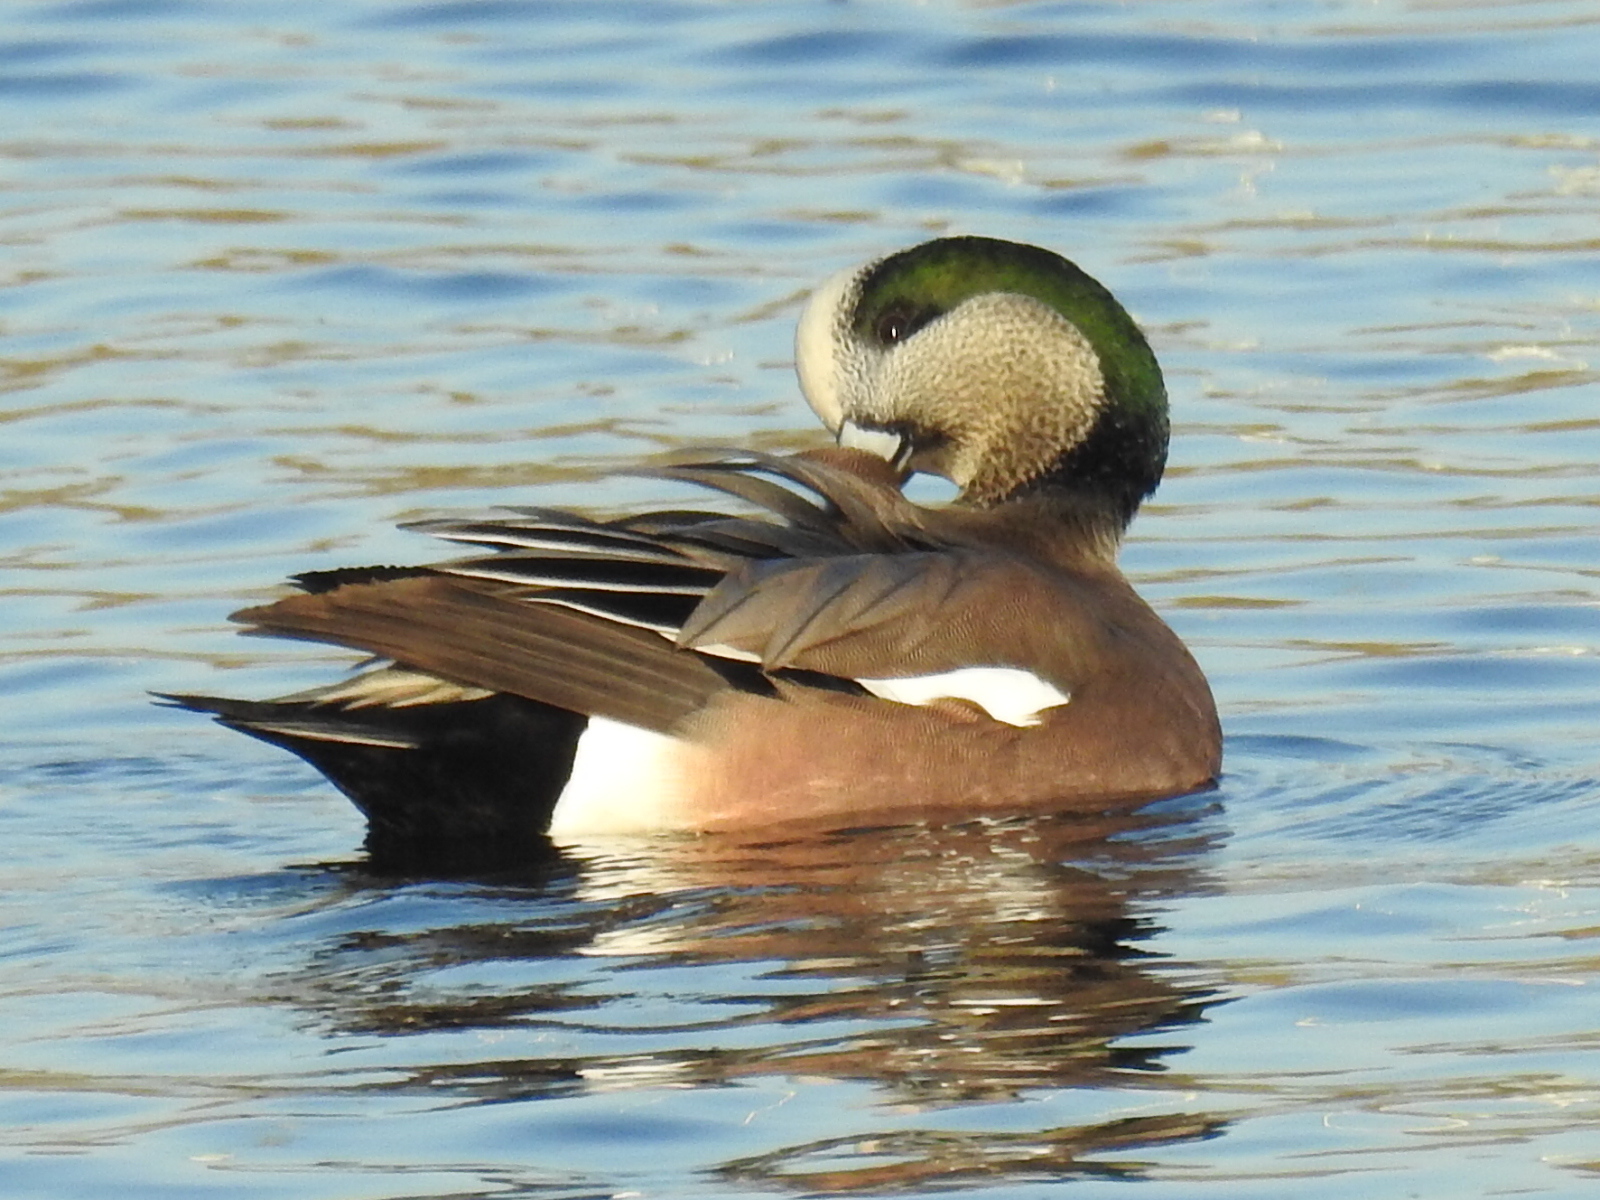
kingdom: Animalia
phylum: Chordata
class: Aves
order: Anseriformes
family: Anatidae
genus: Mareca
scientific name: Mareca americana
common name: American wigeon
